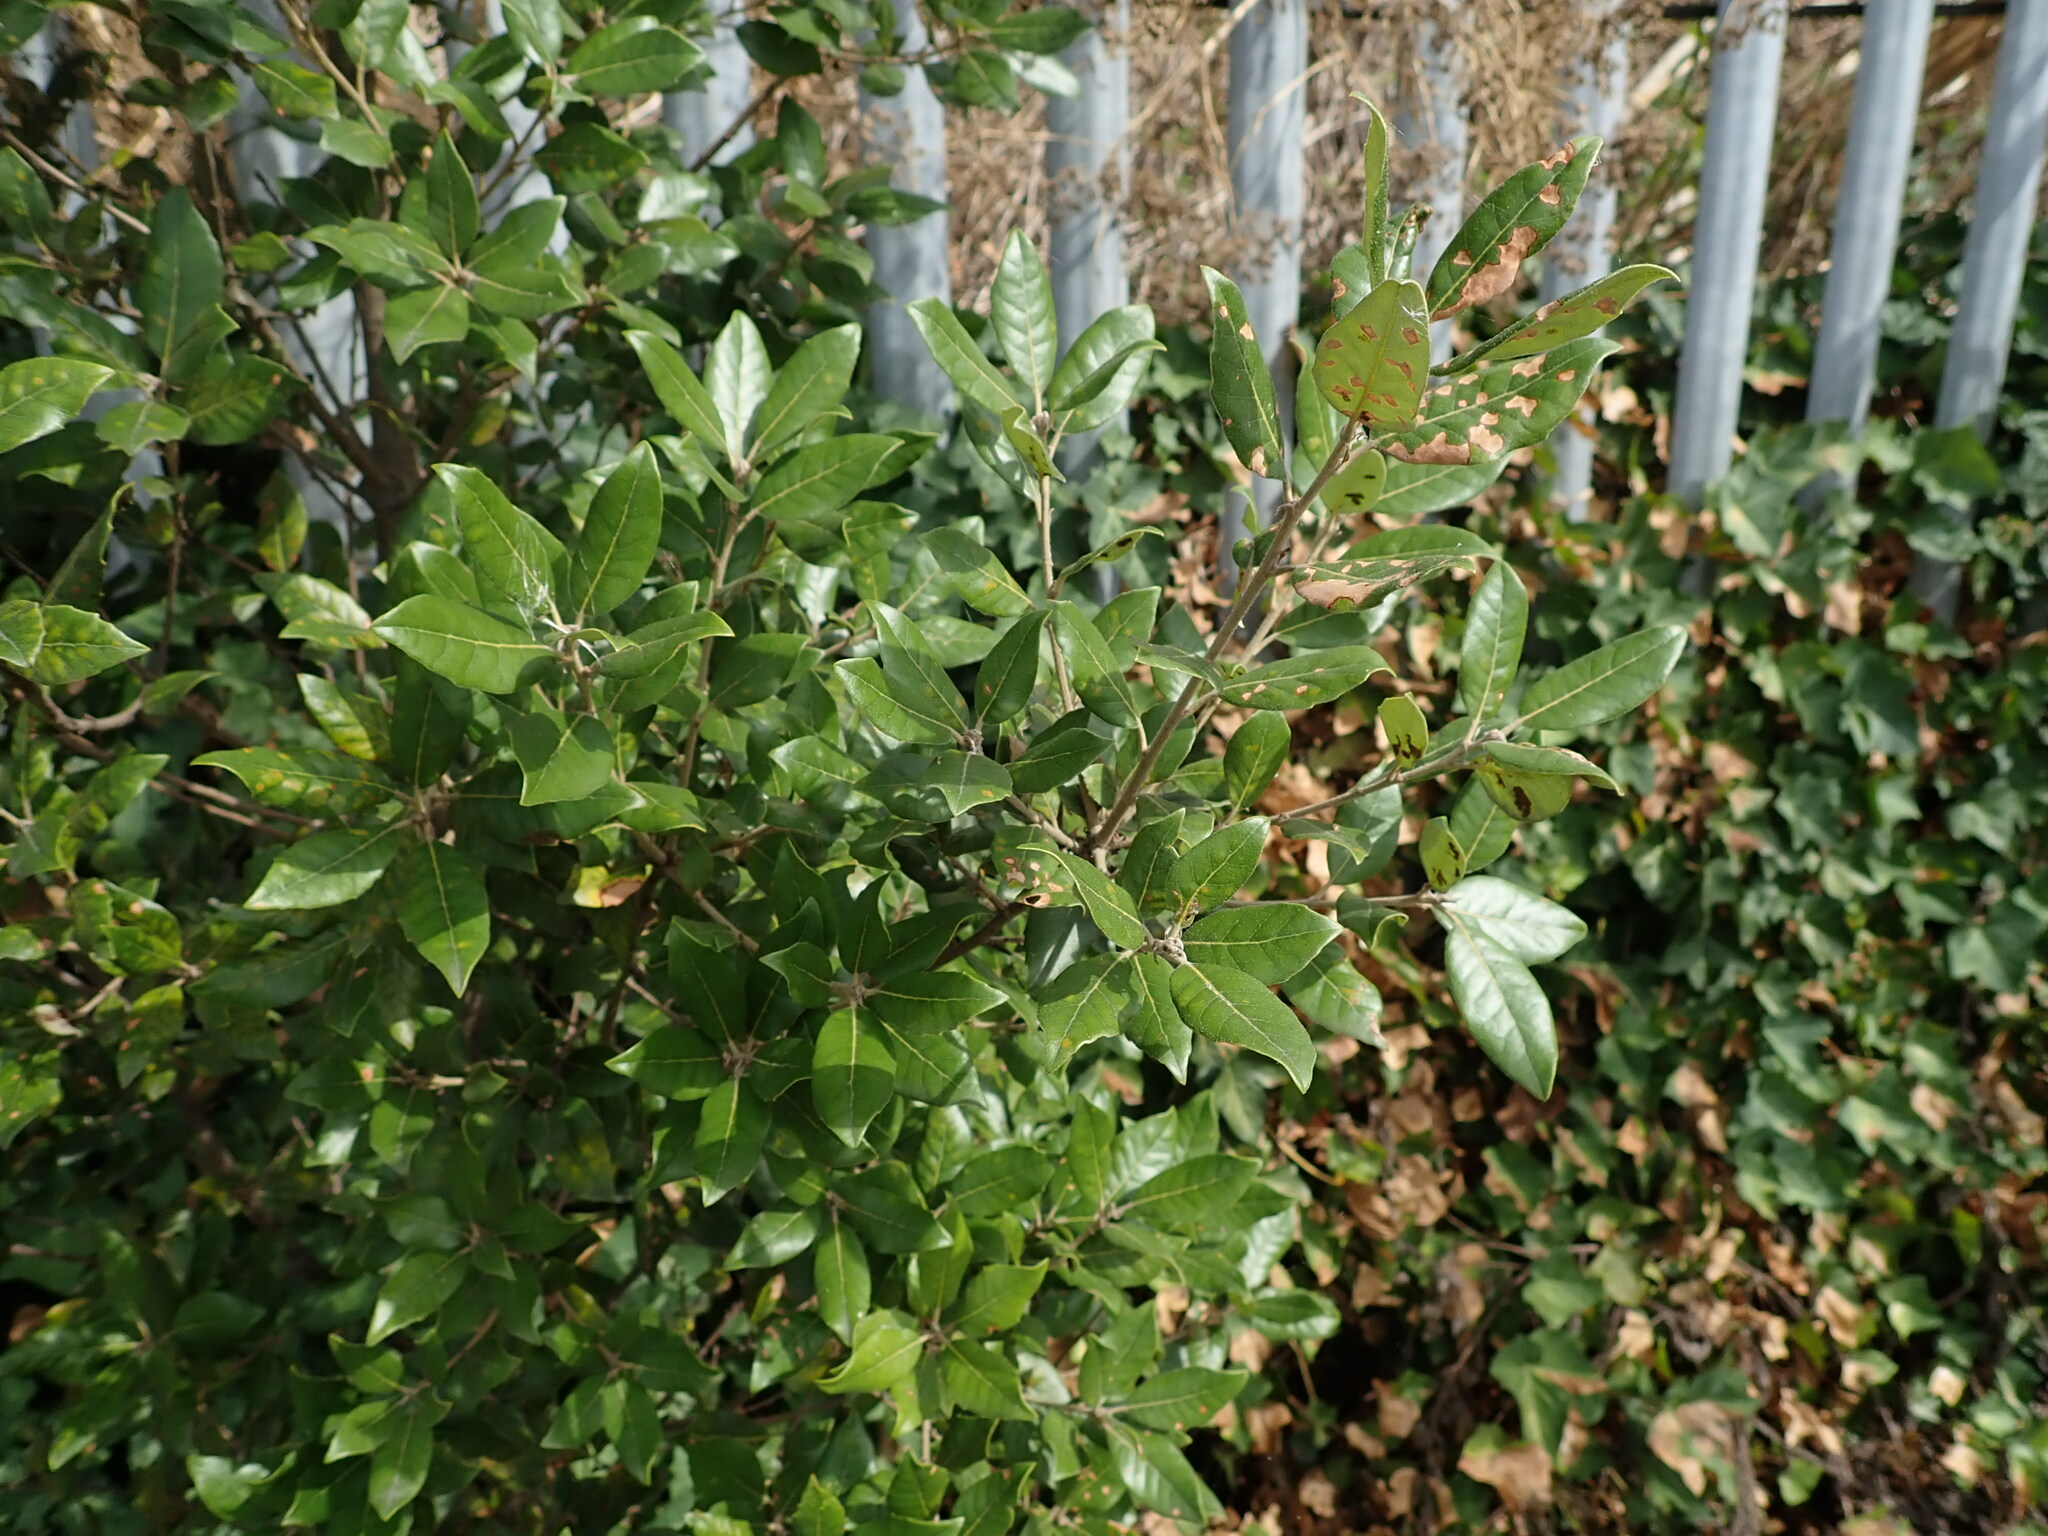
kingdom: Plantae
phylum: Tracheophyta
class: Magnoliopsida
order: Fagales
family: Fagaceae
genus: Quercus
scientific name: Quercus ilex
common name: Evergreen oak
